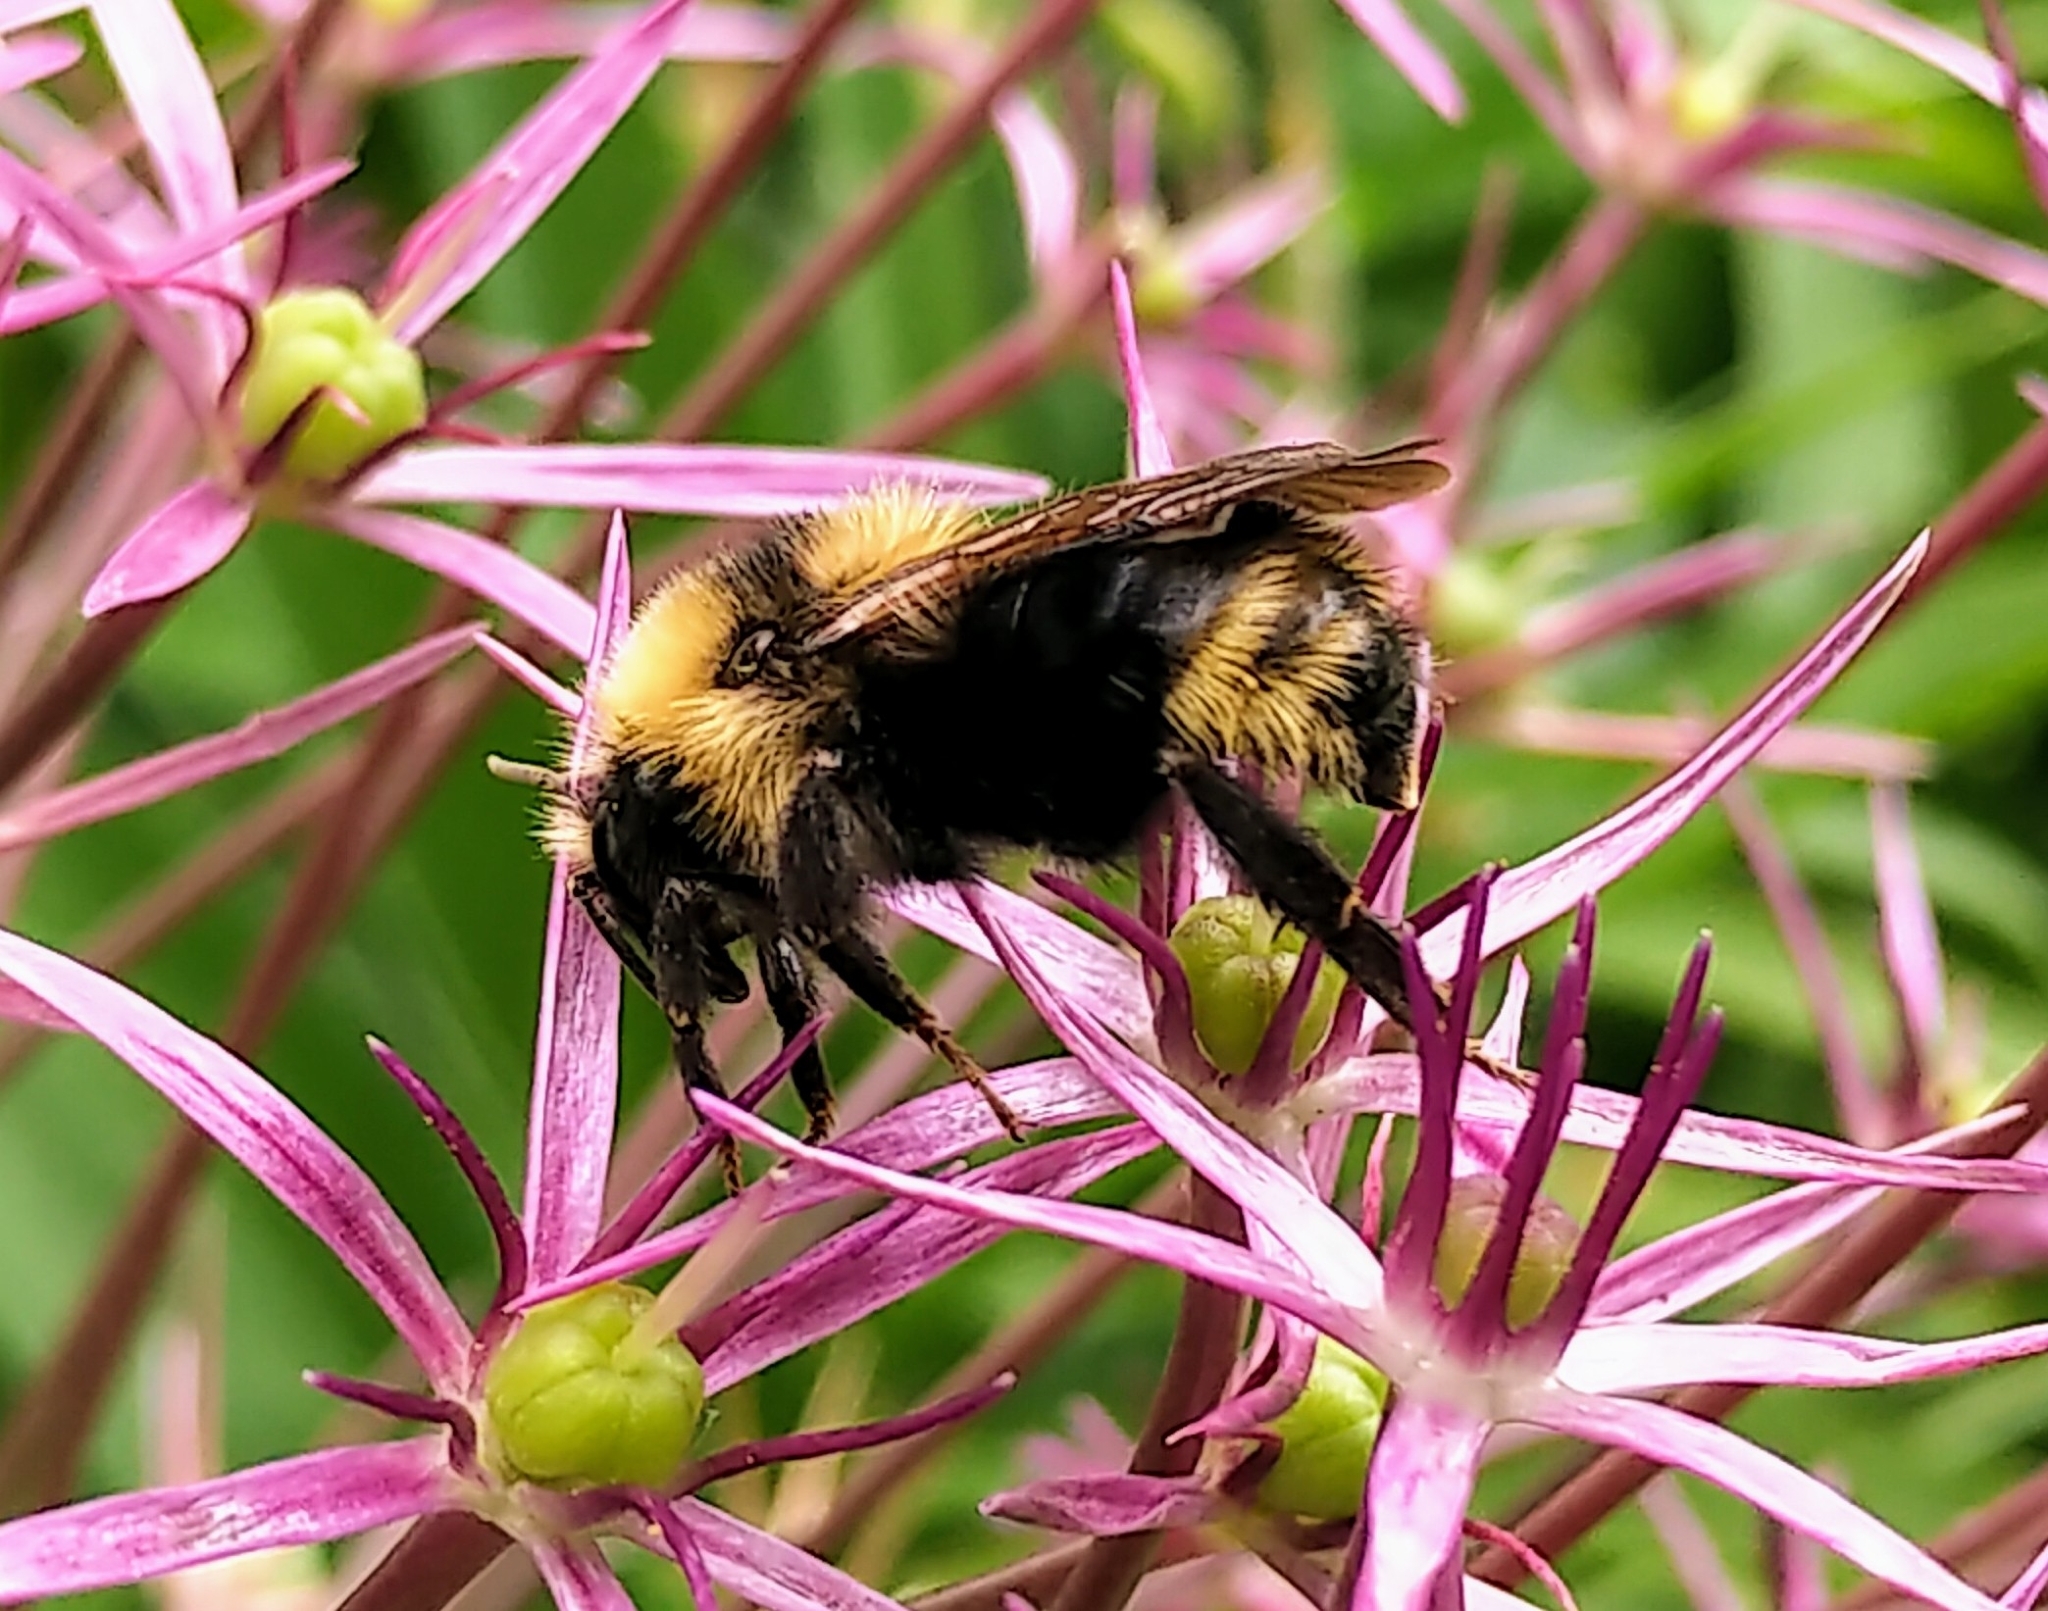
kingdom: Animalia
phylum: Arthropoda
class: Insecta
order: Hymenoptera
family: Apidae
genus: Bombus
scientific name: Bombus insularis
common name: Indiscriminate cuckoo bumble bee
